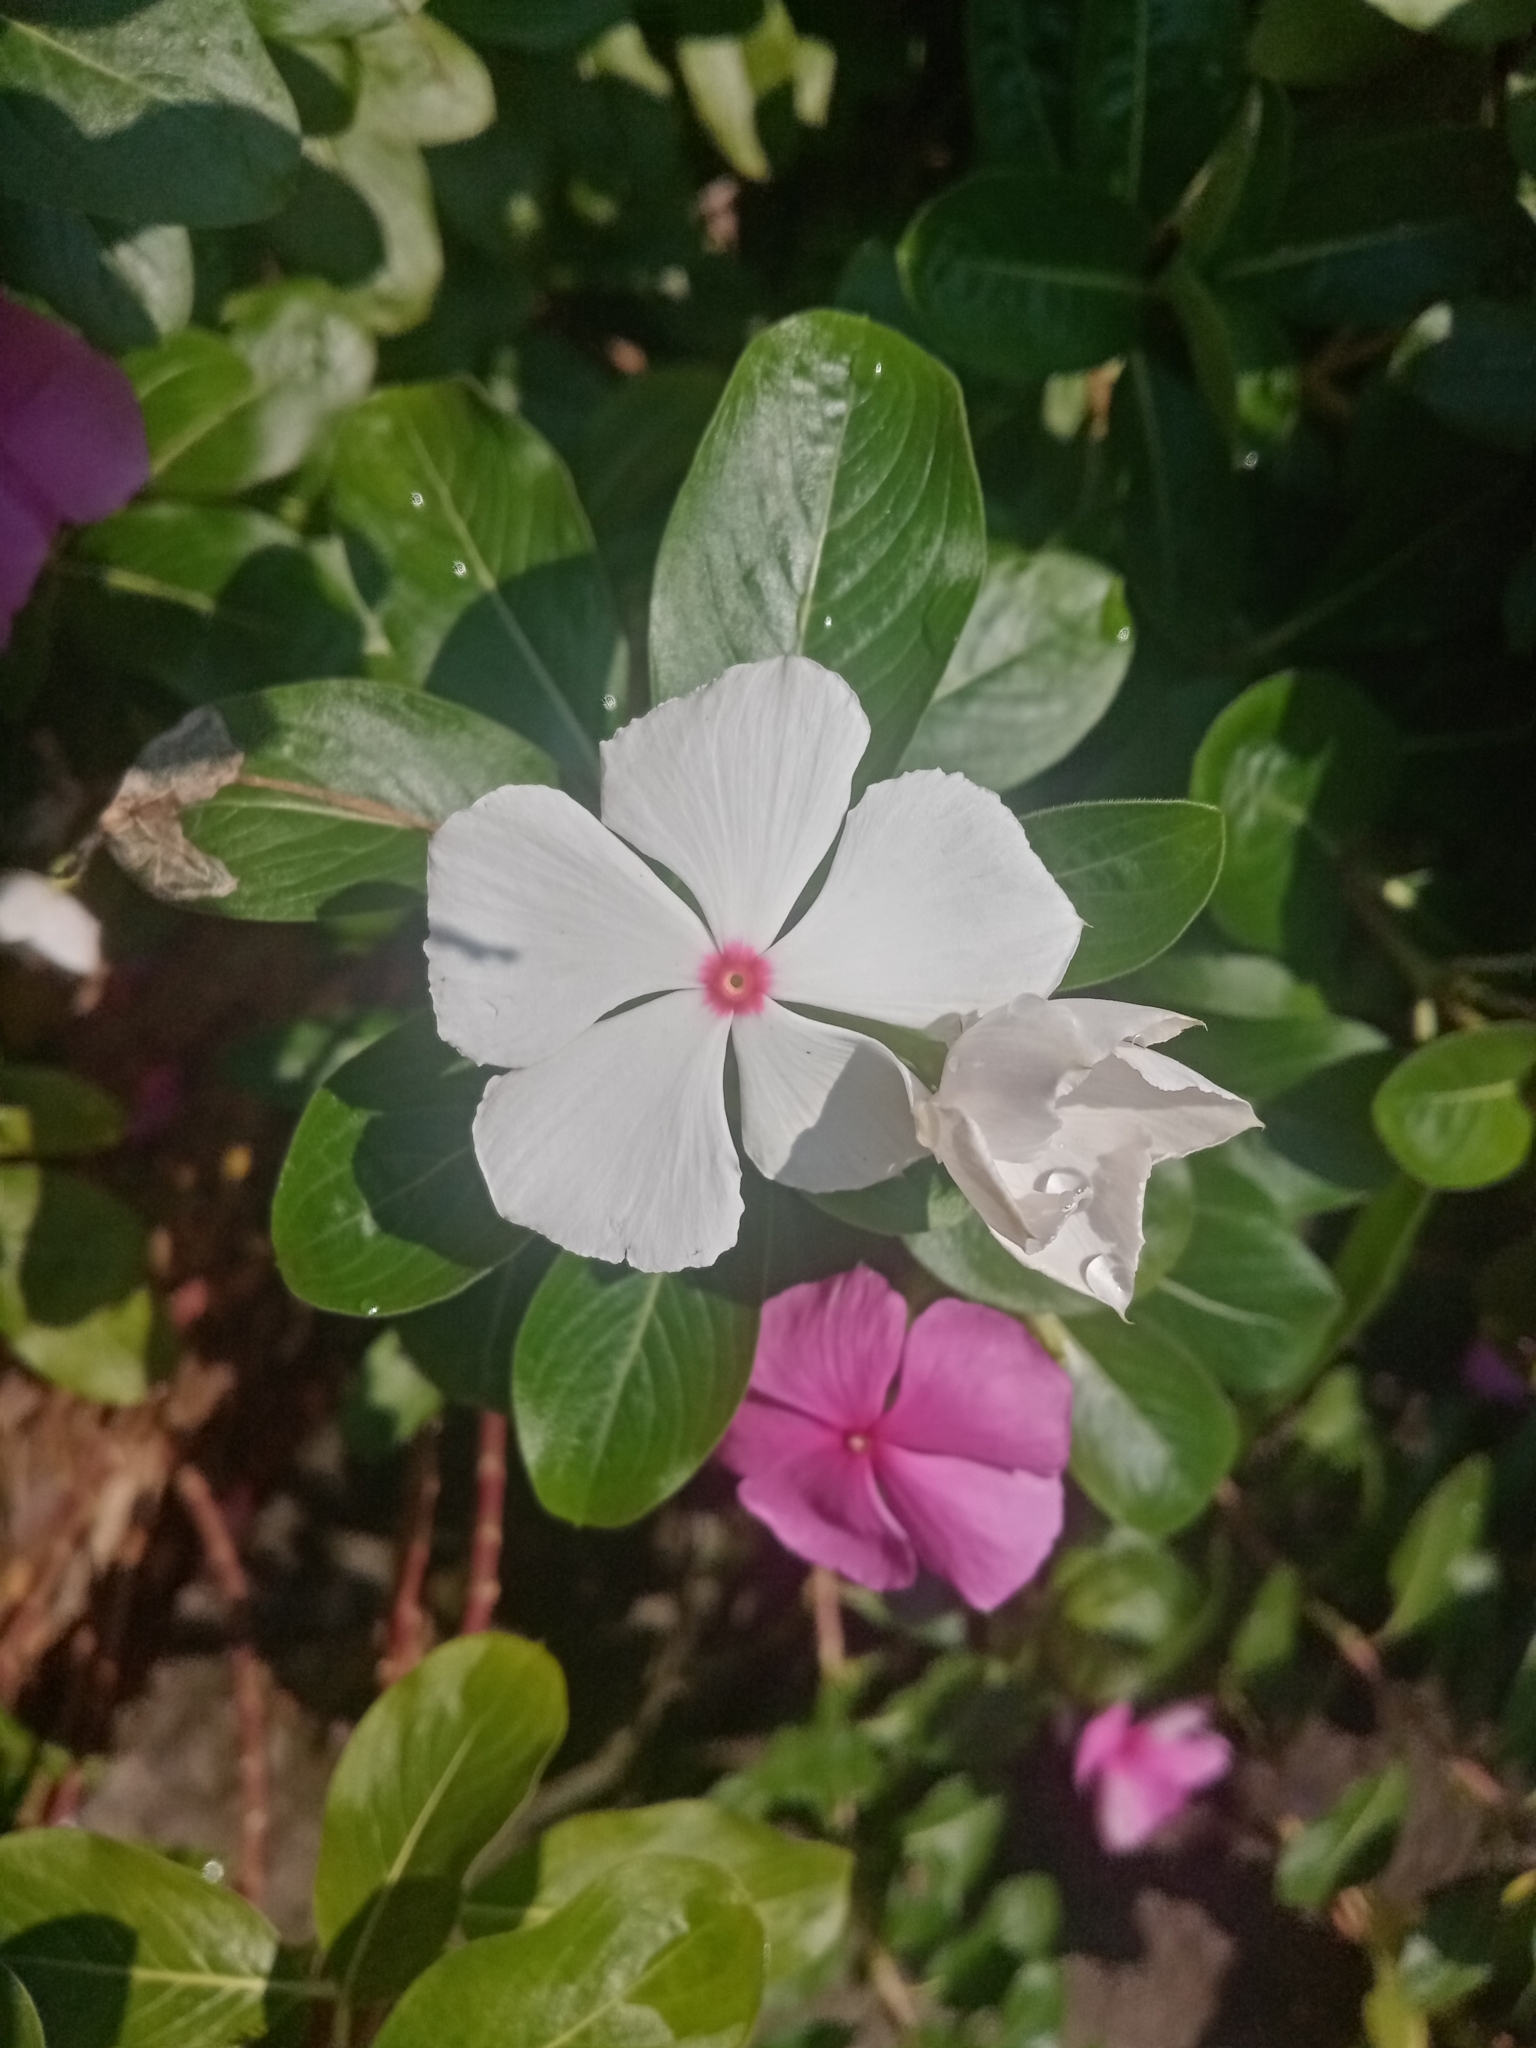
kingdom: Plantae
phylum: Tracheophyta
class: Magnoliopsida
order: Gentianales
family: Apocynaceae
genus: Catharanthus
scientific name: Catharanthus roseus
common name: Madagascar periwinkle
